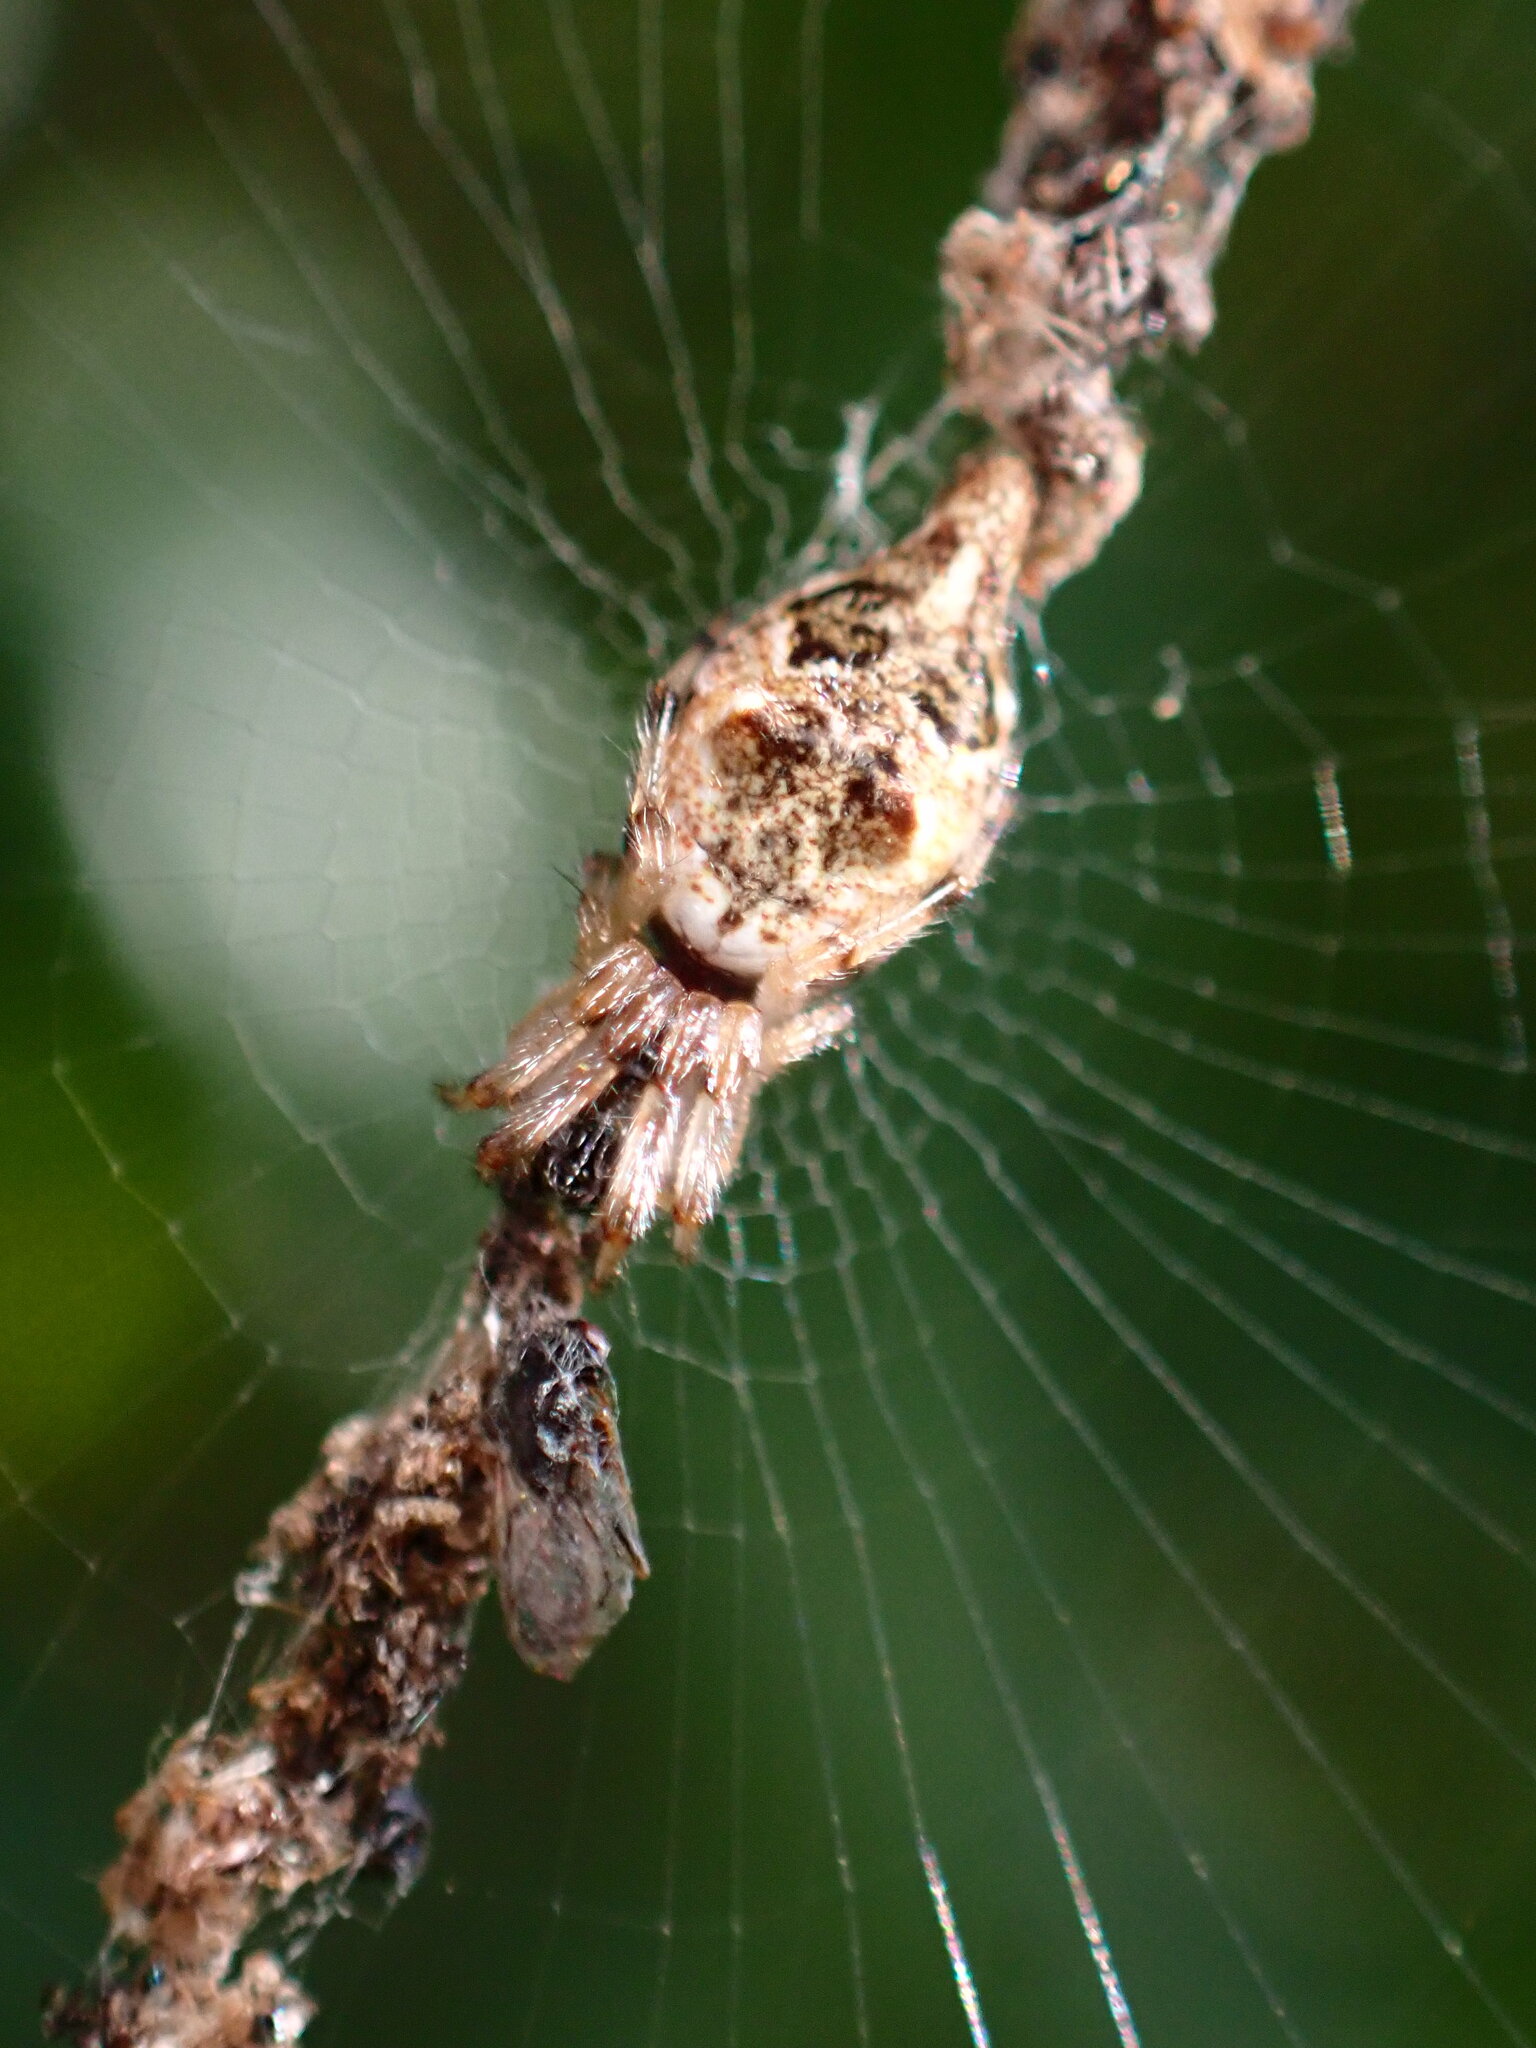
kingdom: Animalia
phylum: Arthropoda
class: Arachnida
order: Araneae
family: Araneidae
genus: Cyclosa
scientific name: Cyclosa turbinata
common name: Orb weavers
